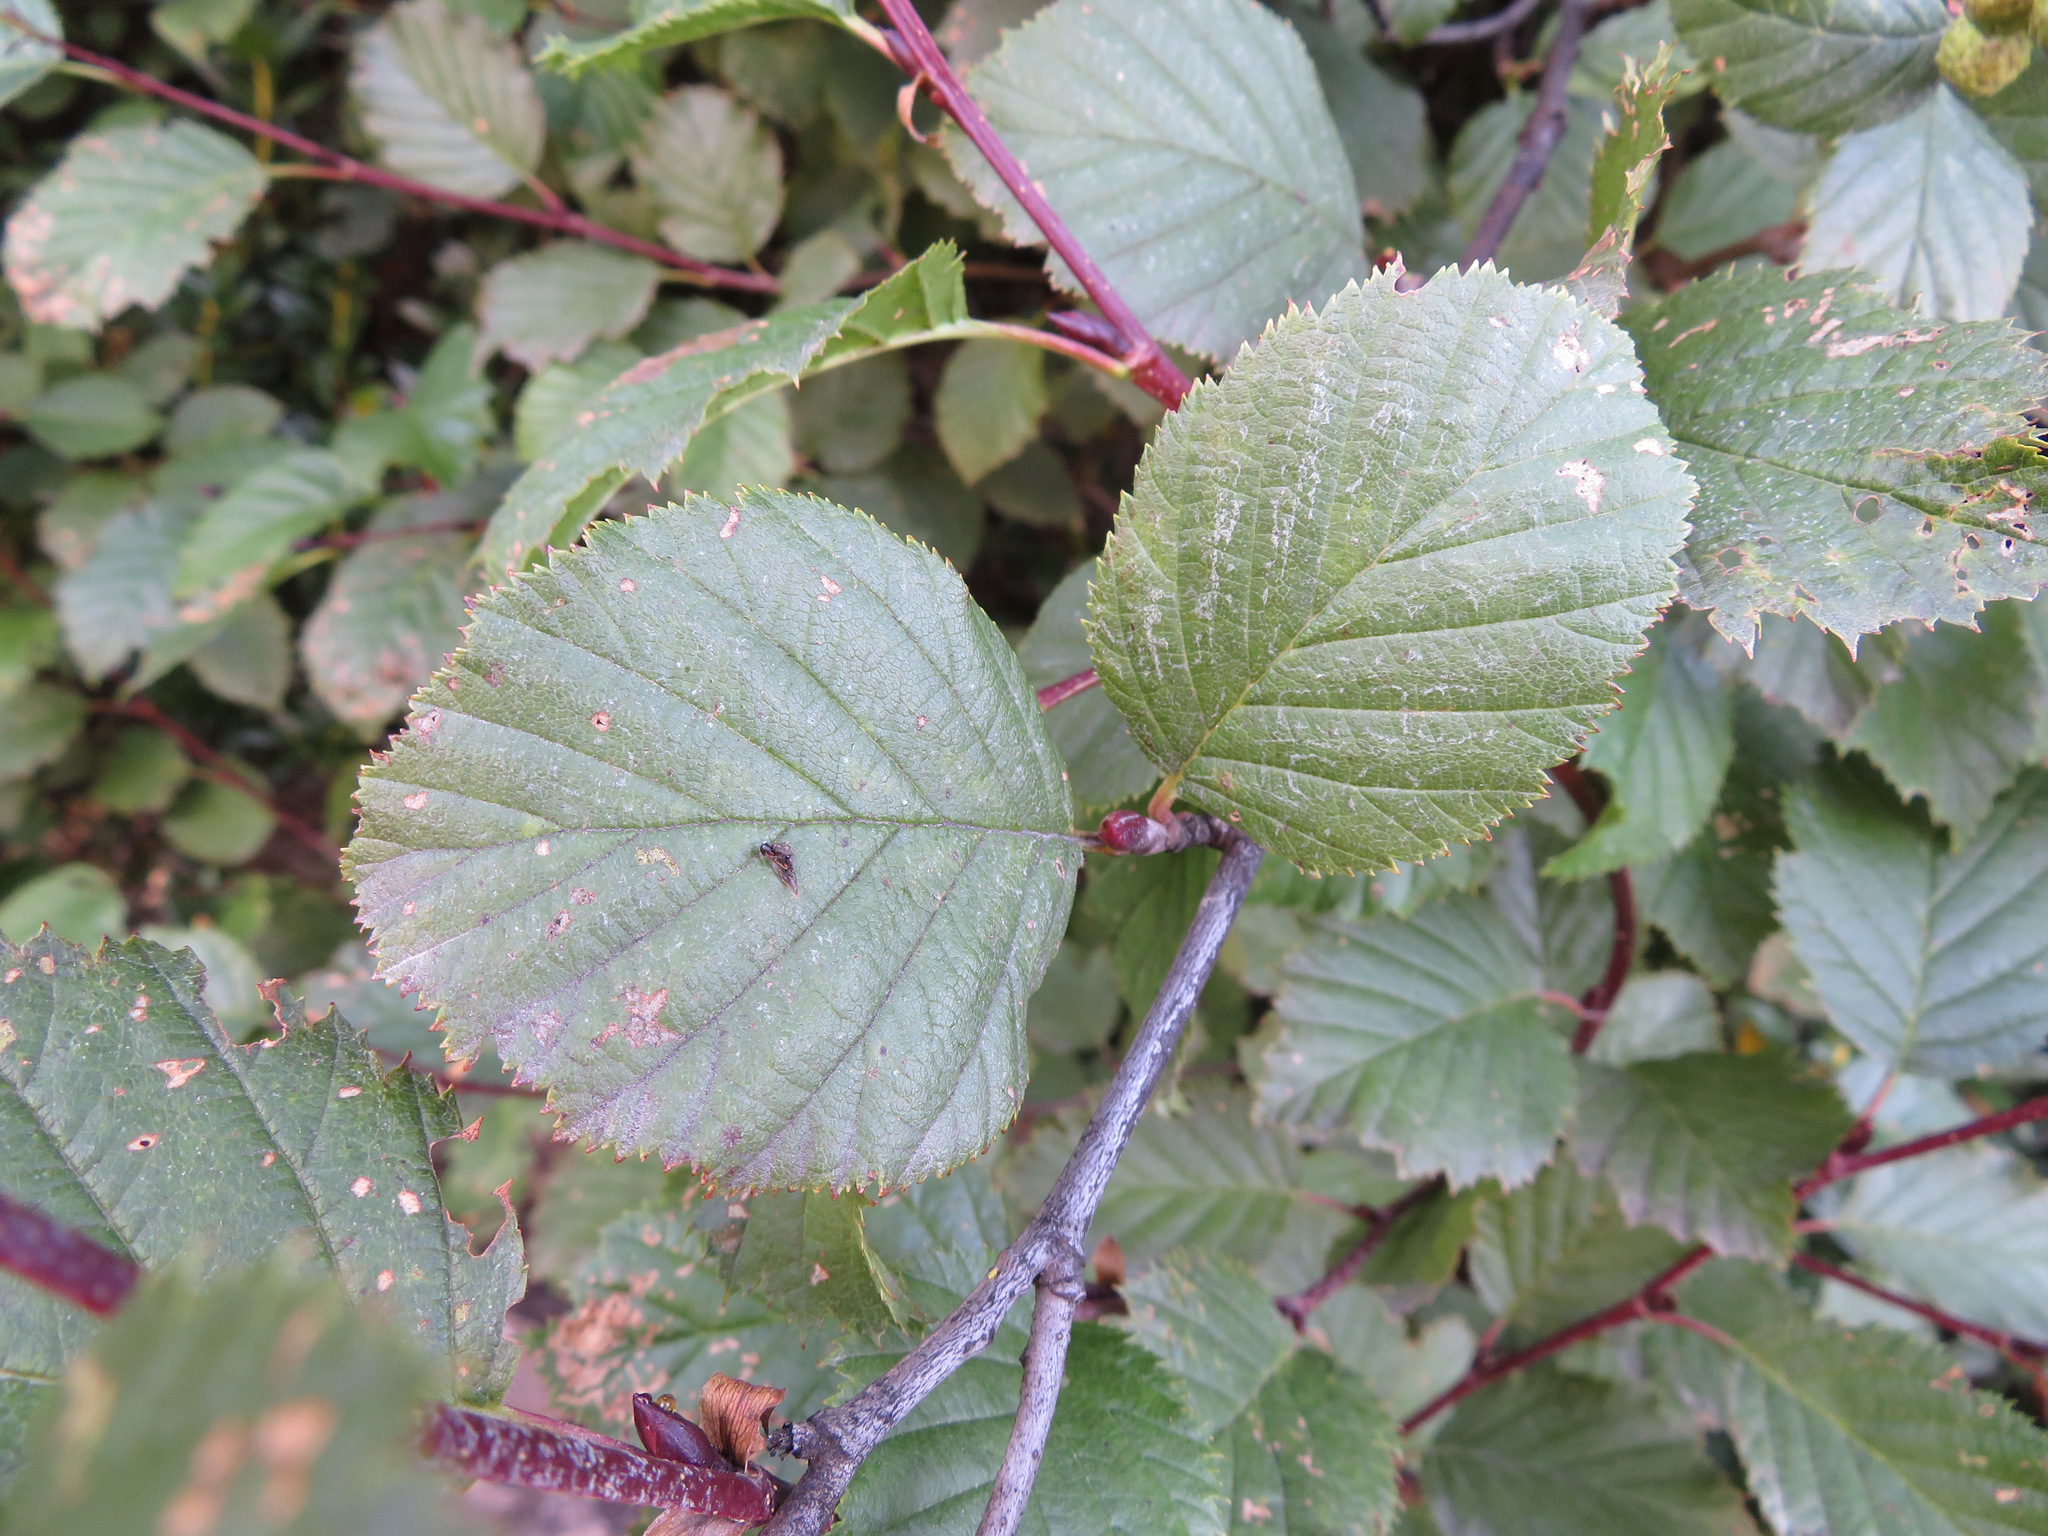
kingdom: Plantae
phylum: Tracheophyta
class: Magnoliopsida
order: Fagales
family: Betulaceae
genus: Alnus
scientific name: Alnus alnobetula
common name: Green alder
